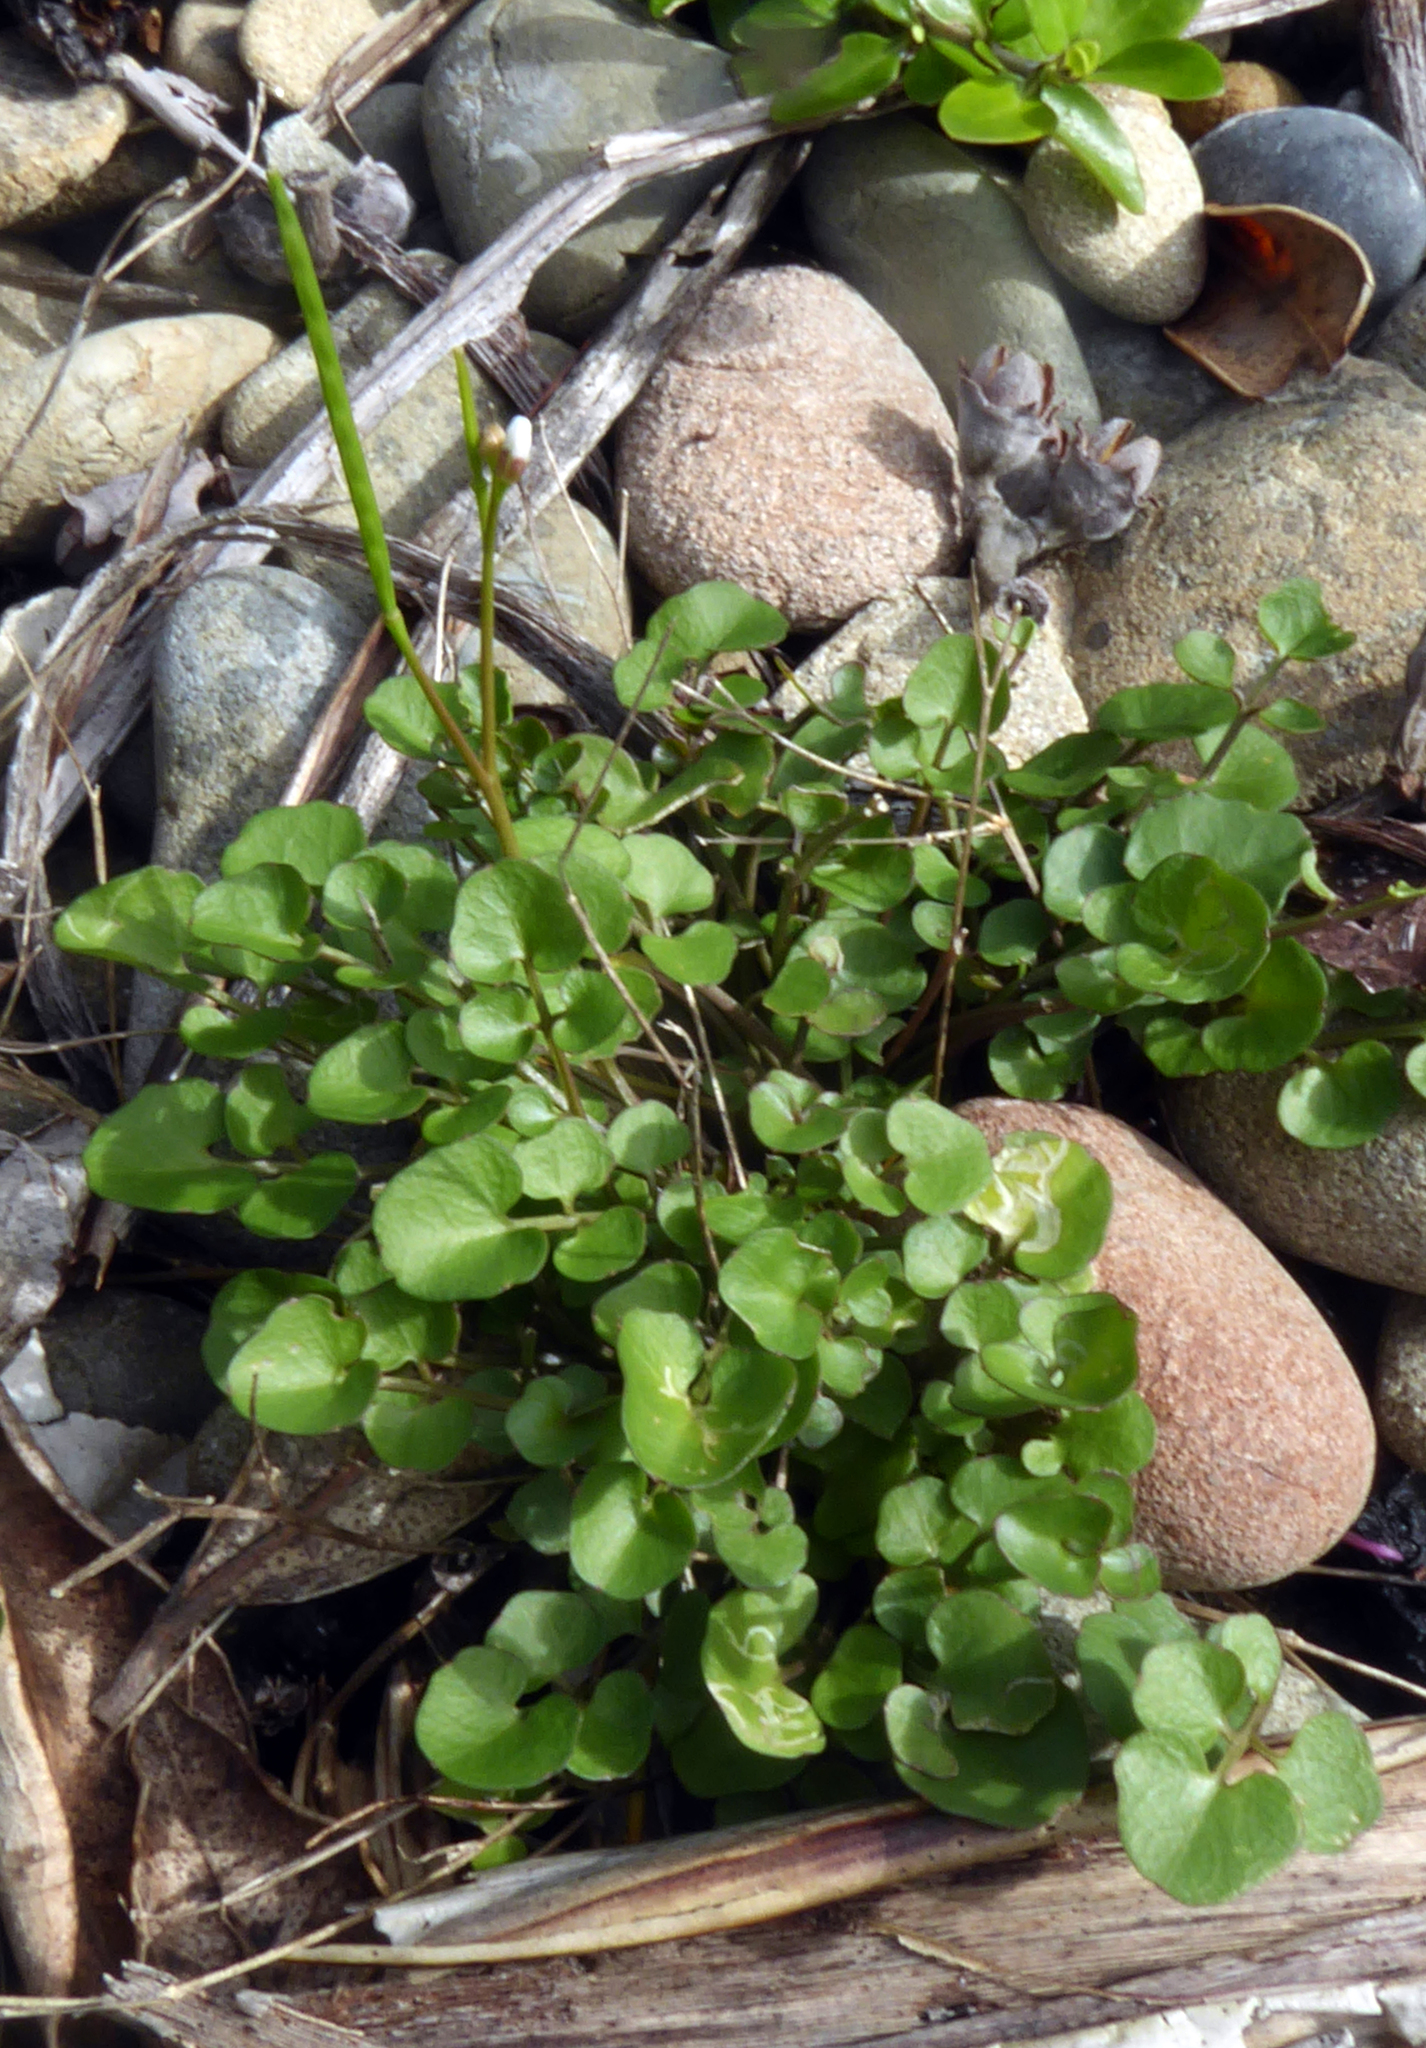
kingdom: Plantae
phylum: Tracheophyta
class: Magnoliopsida
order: Brassicales
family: Brassicaceae
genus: Cardamine
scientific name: Cardamine corymbosa
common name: New zealand bitter-cress
